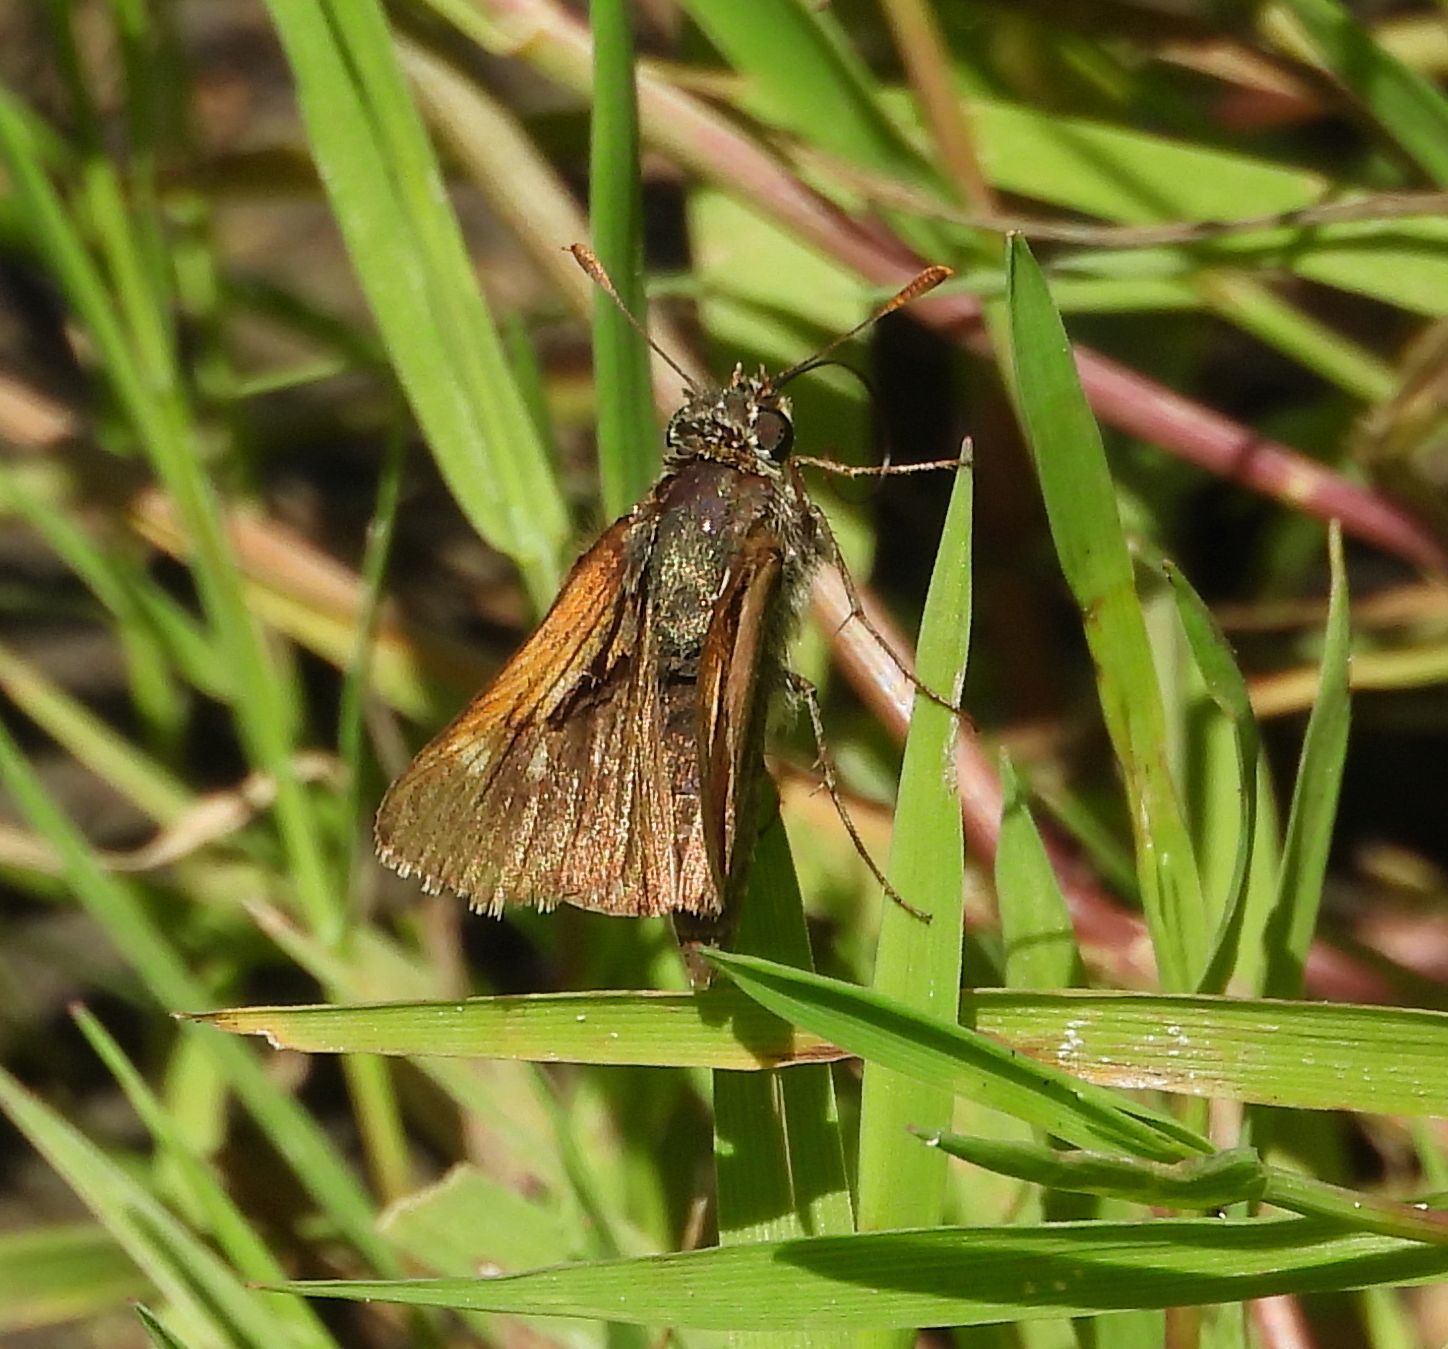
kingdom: Animalia
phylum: Arthropoda
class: Insecta
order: Lepidoptera
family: Hesperiidae
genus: Polites
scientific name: Polites themistocles
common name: Tawny-edged skipper
